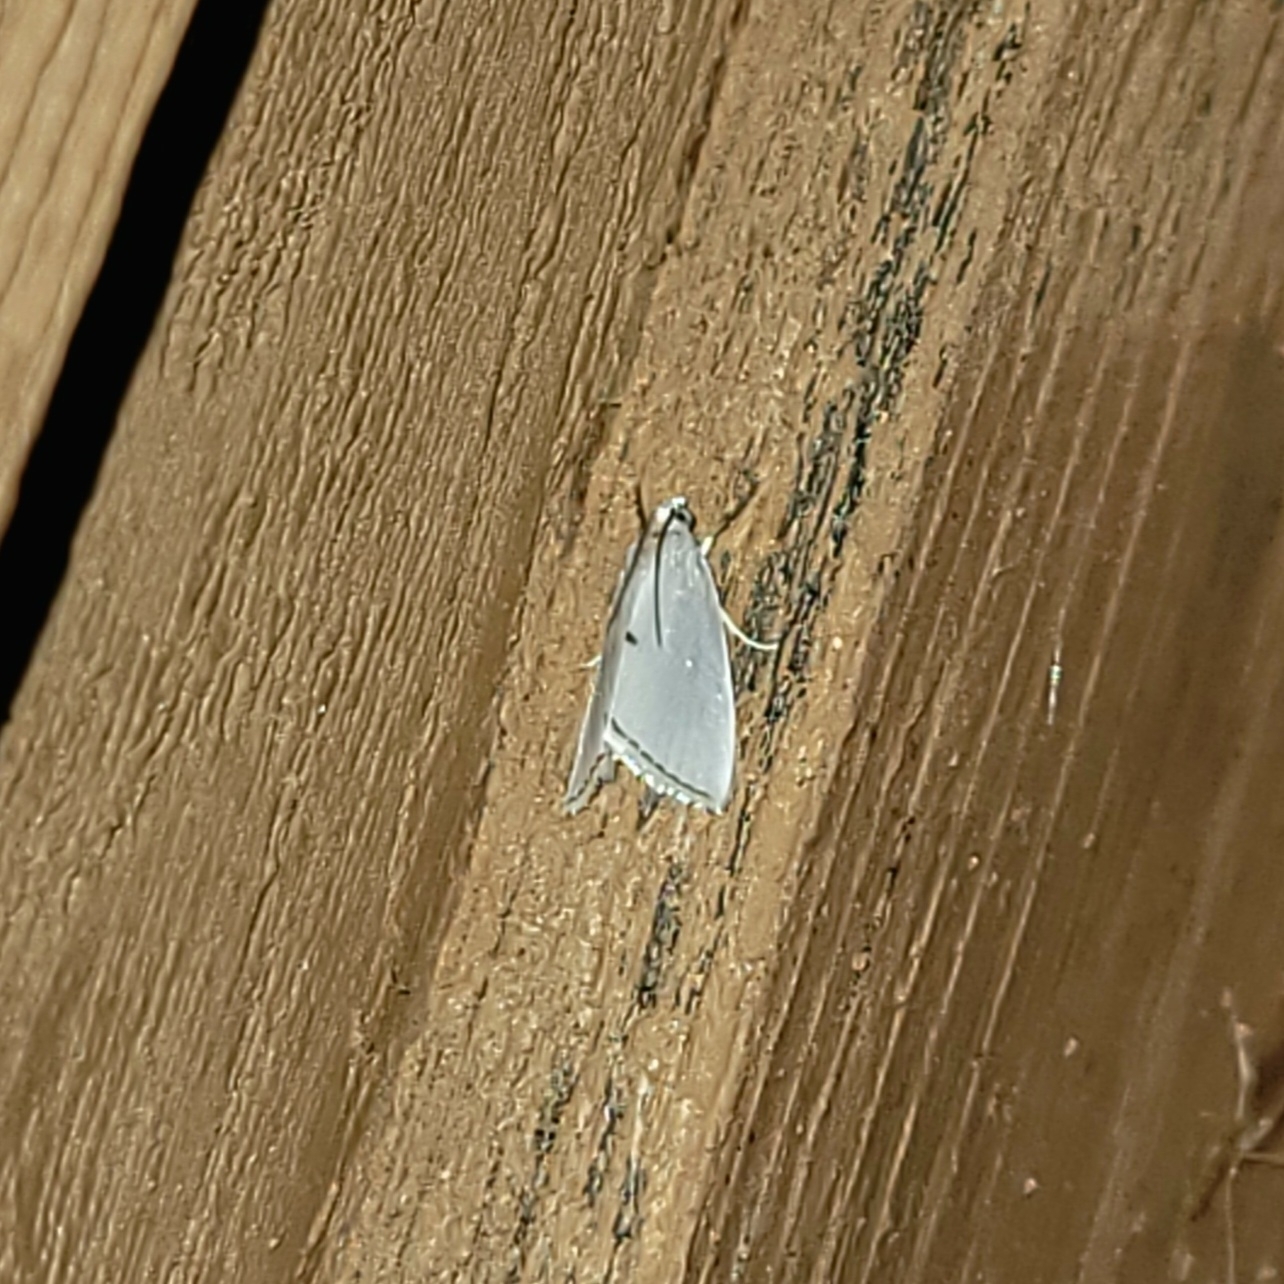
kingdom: Animalia
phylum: Arthropoda
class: Insecta
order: Lepidoptera
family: Crambidae
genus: Argyria
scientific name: Argyria nivalis
